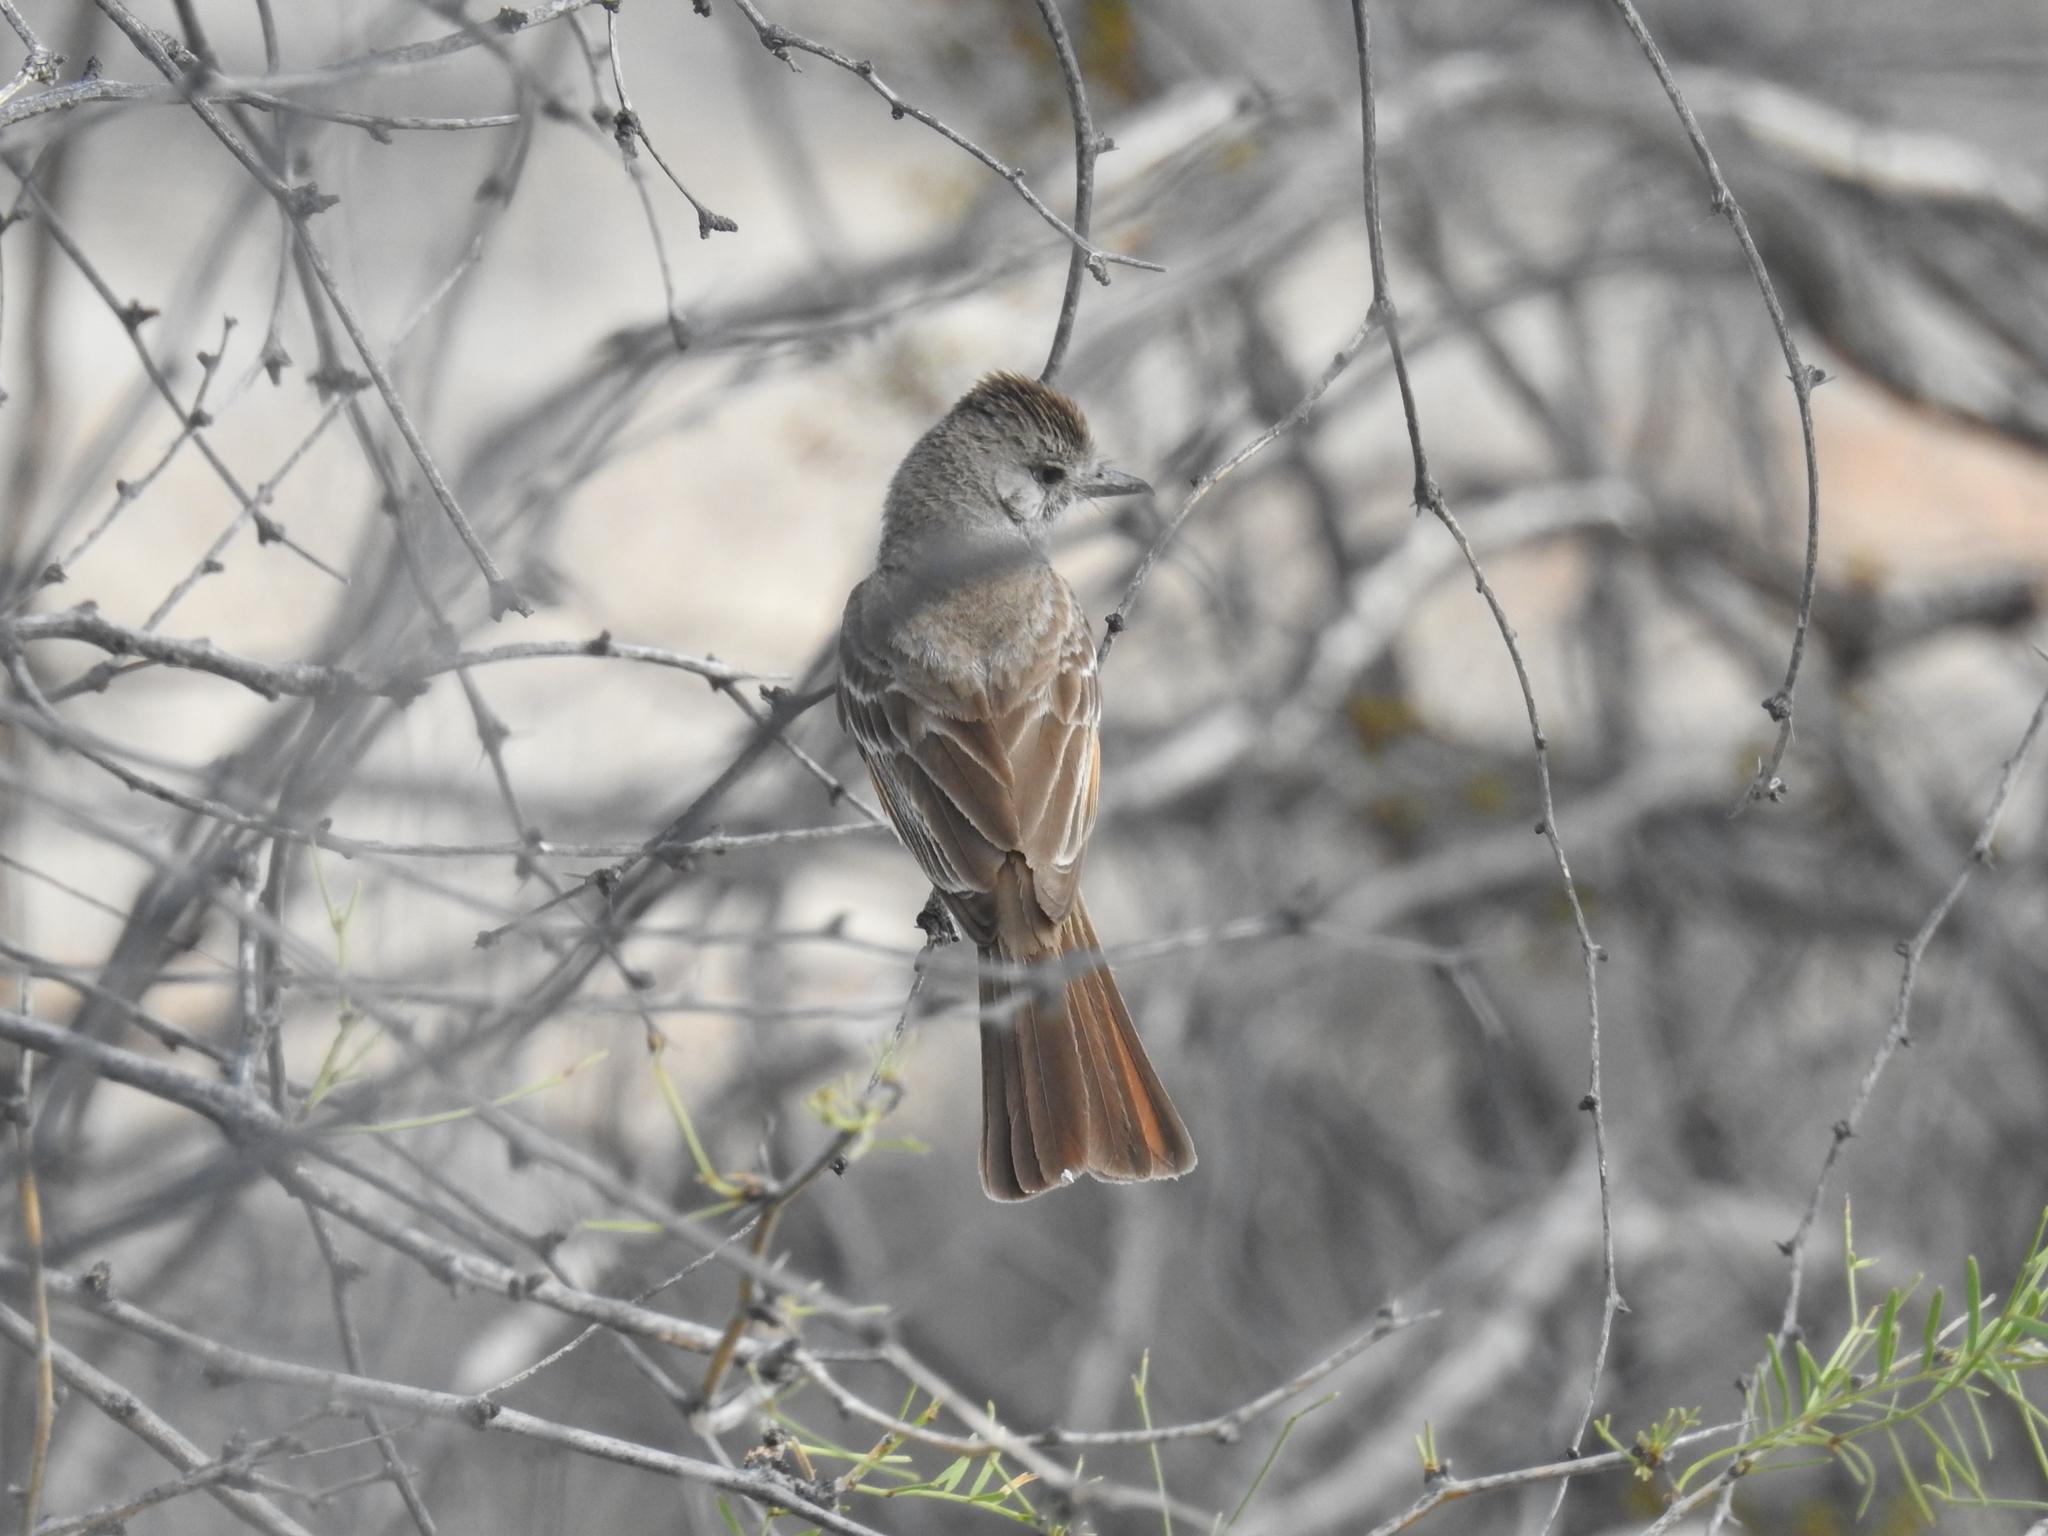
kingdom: Animalia
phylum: Chordata
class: Aves
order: Passeriformes
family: Tyrannidae
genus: Myiarchus
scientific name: Myiarchus cinerascens
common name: Ash-throated flycatcher
